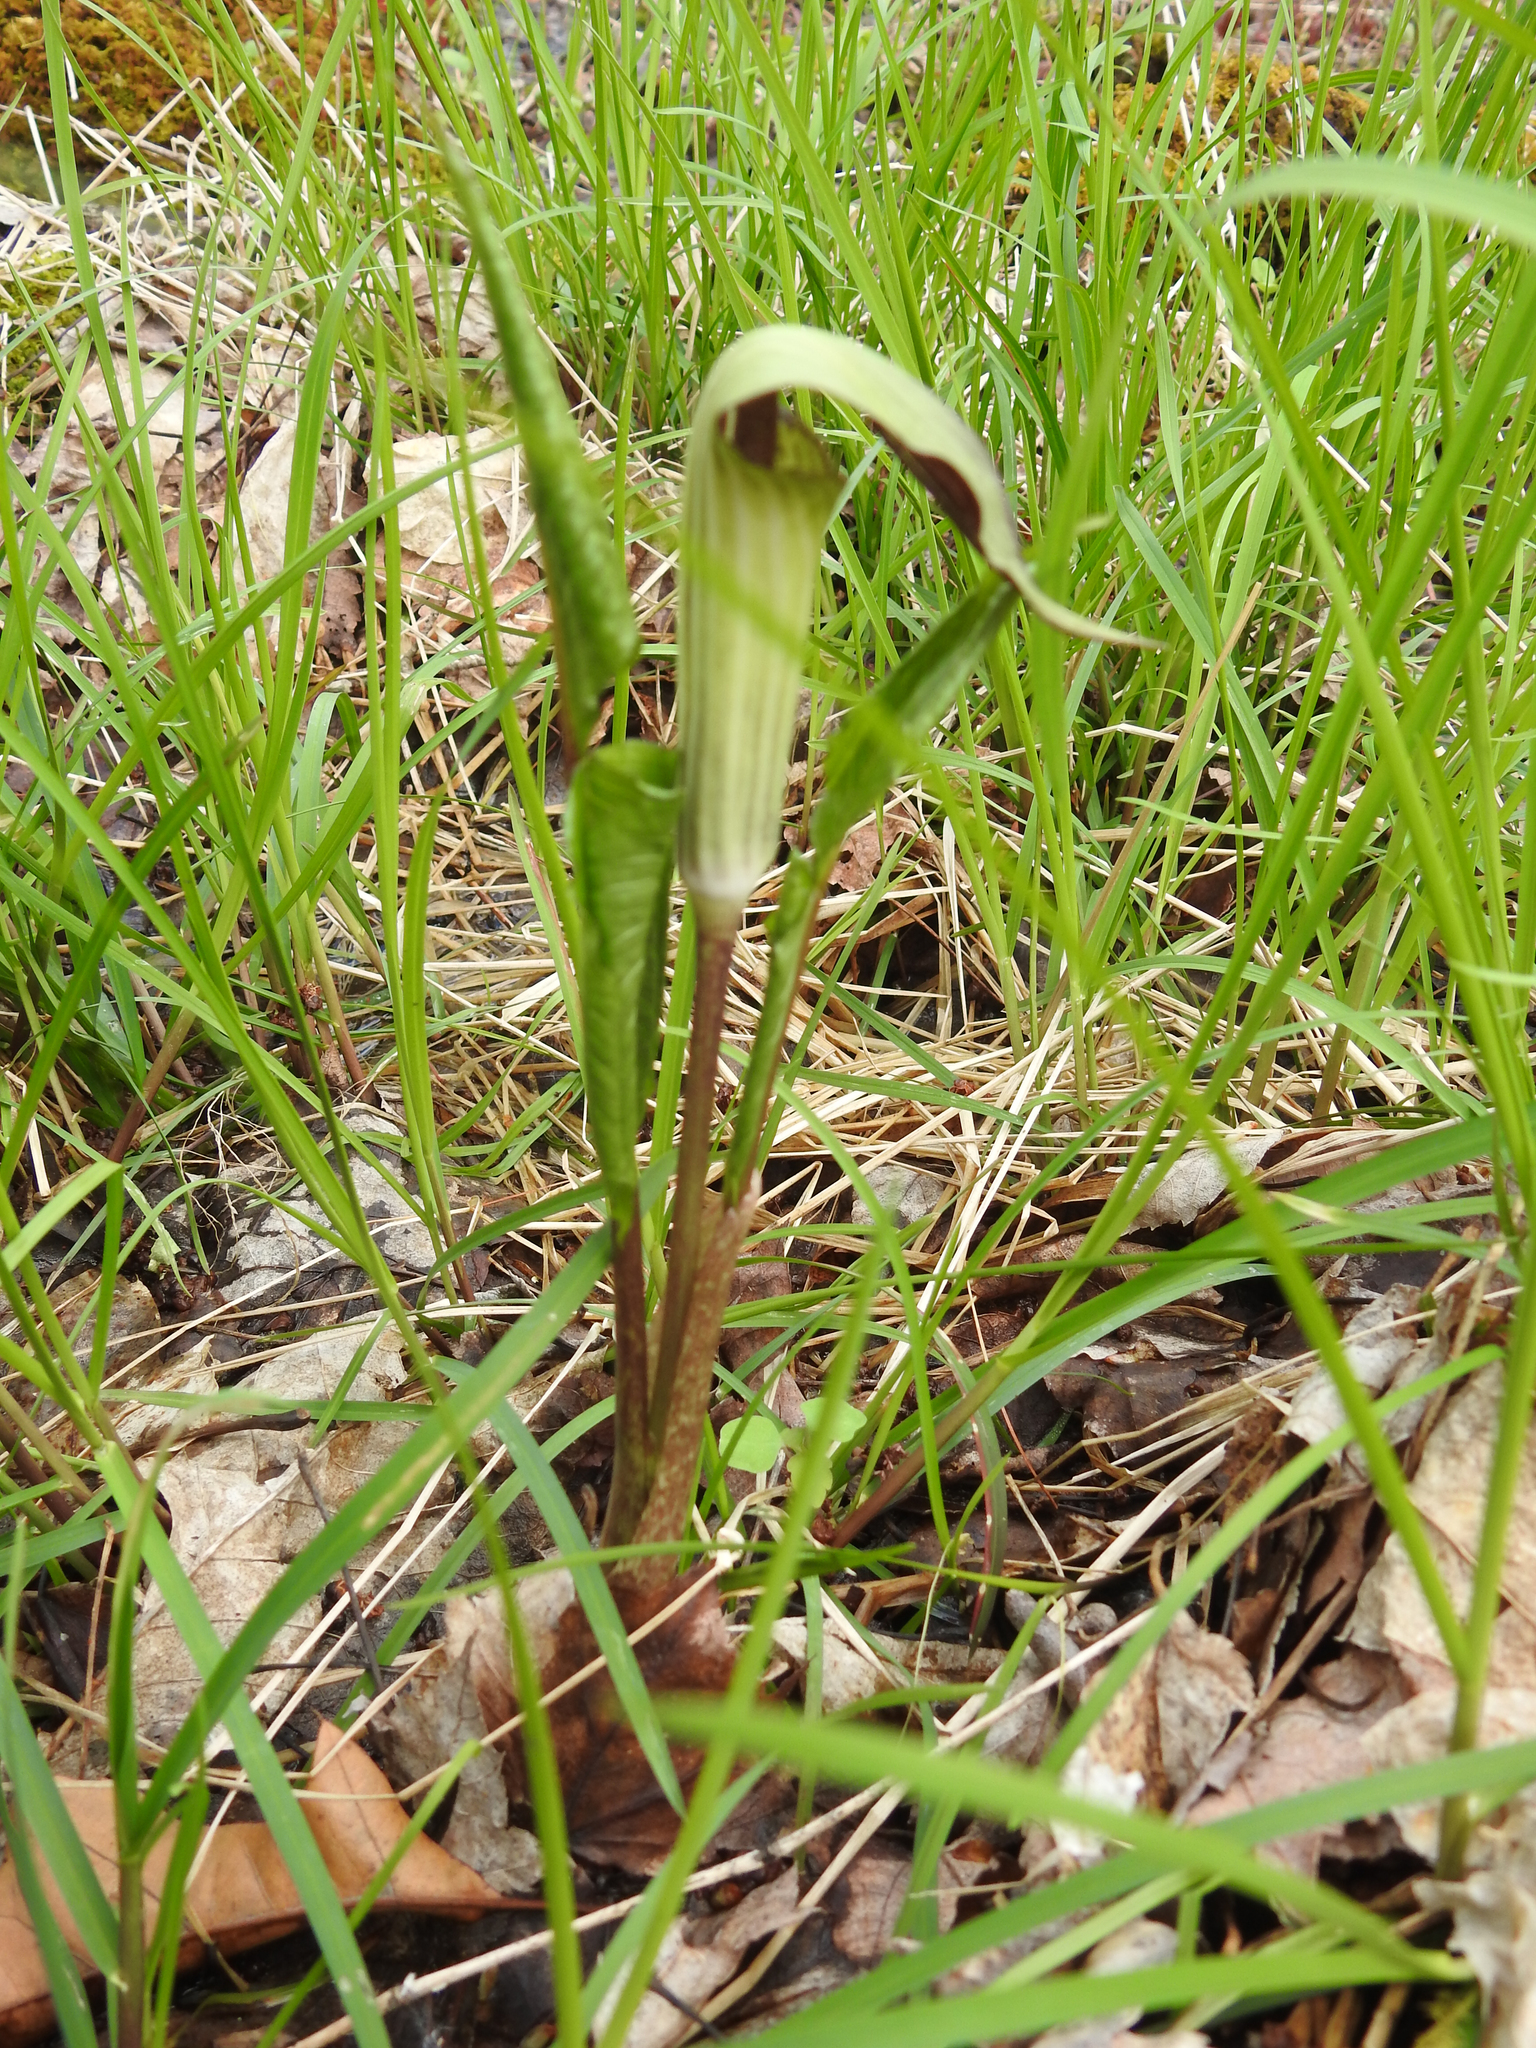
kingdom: Plantae
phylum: Tracheophyta
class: Liliopsida
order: Alismatales
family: Araceae
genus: Arisaema
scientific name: Arisaema triphyllum
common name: Jack-in-the-pulpit
